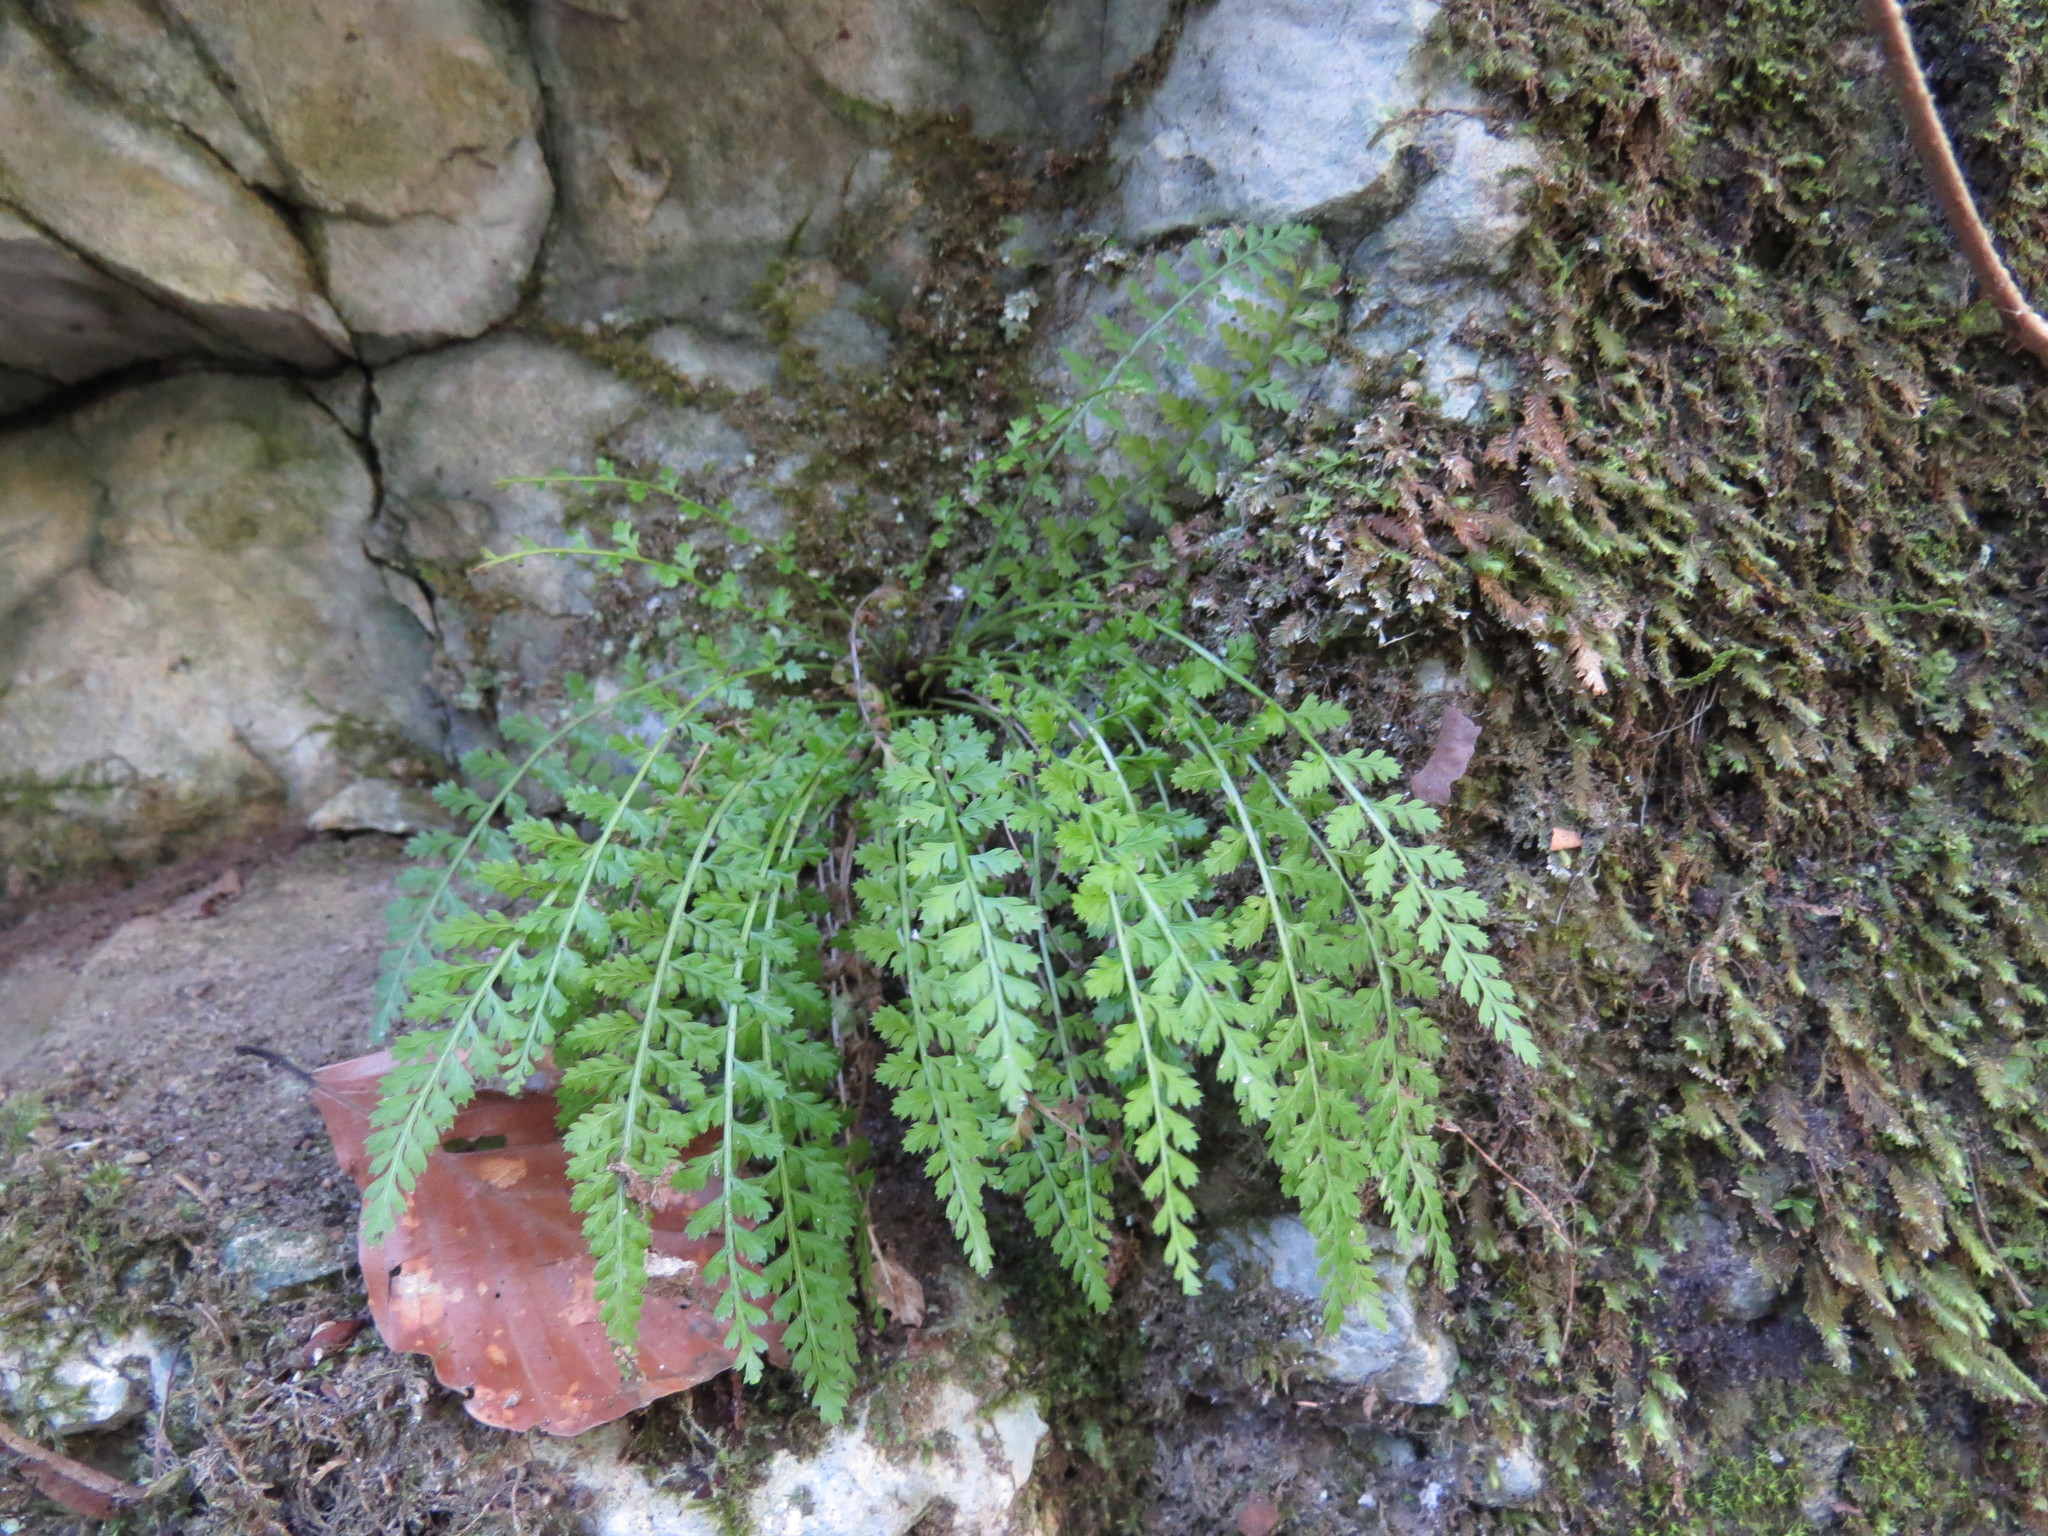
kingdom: Plantae
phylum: Tracheophyta
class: Polypodiopsida
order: Polypodiales
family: Aspleniaceae
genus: Asplenium
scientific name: Asplenium fontanum
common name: Fountain spleenwort
